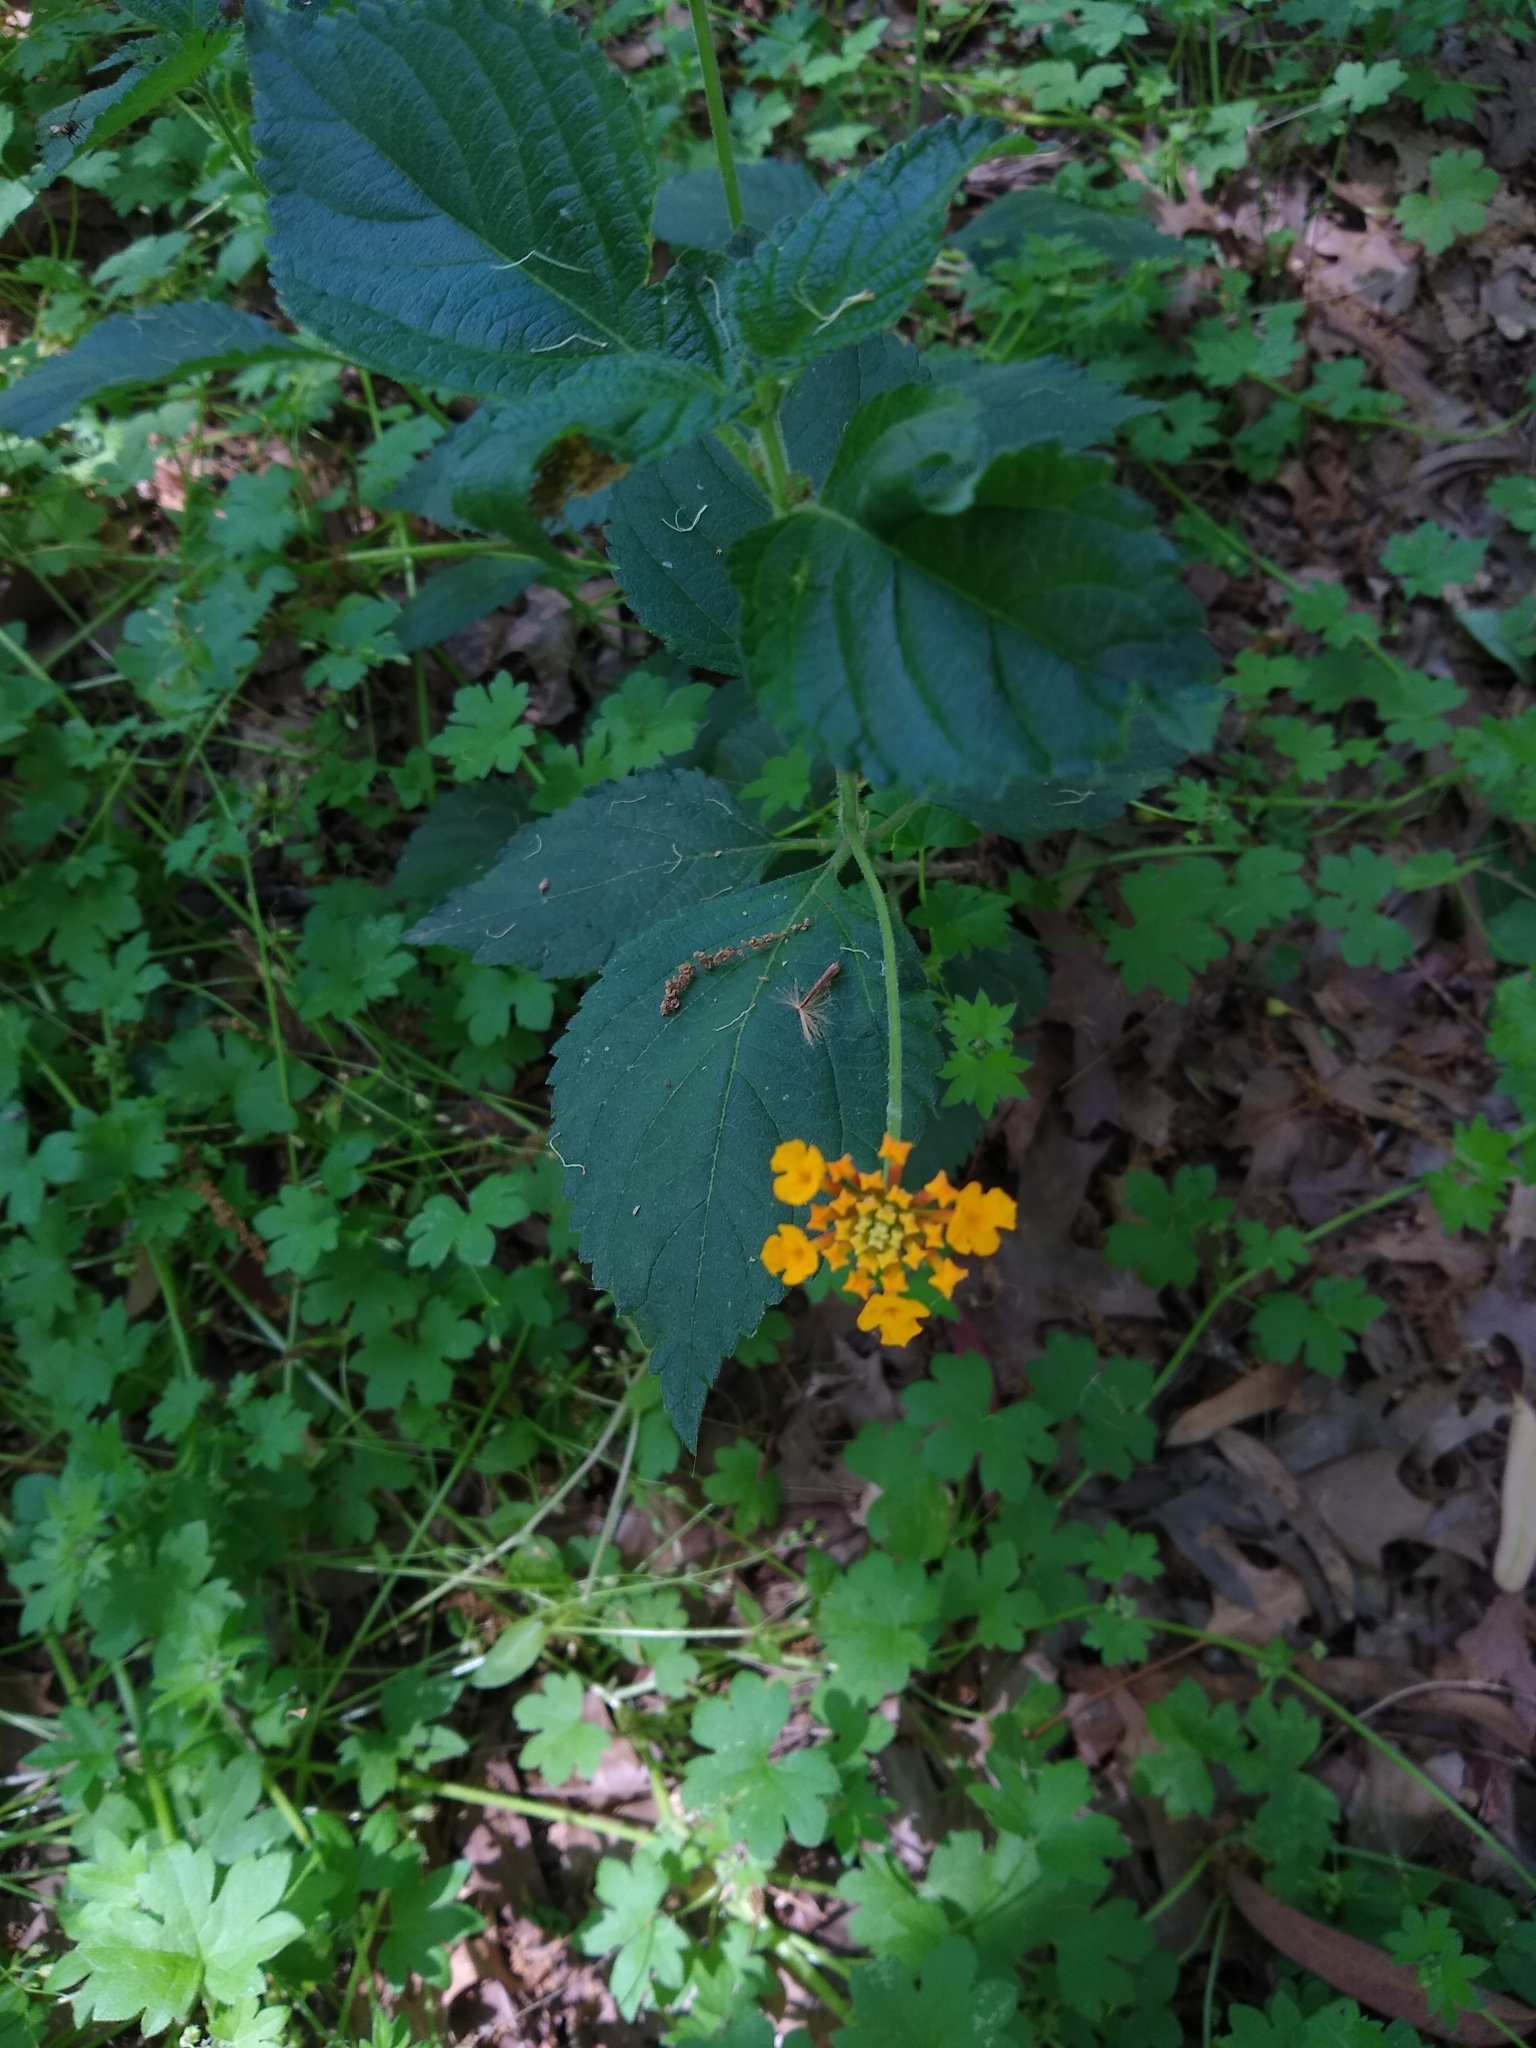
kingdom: Plantae
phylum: Tracheophyta
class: Magnoliopsida
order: Lamiales
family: Verbenaceae
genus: Lantana
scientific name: Lantana camara
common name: Lantana
